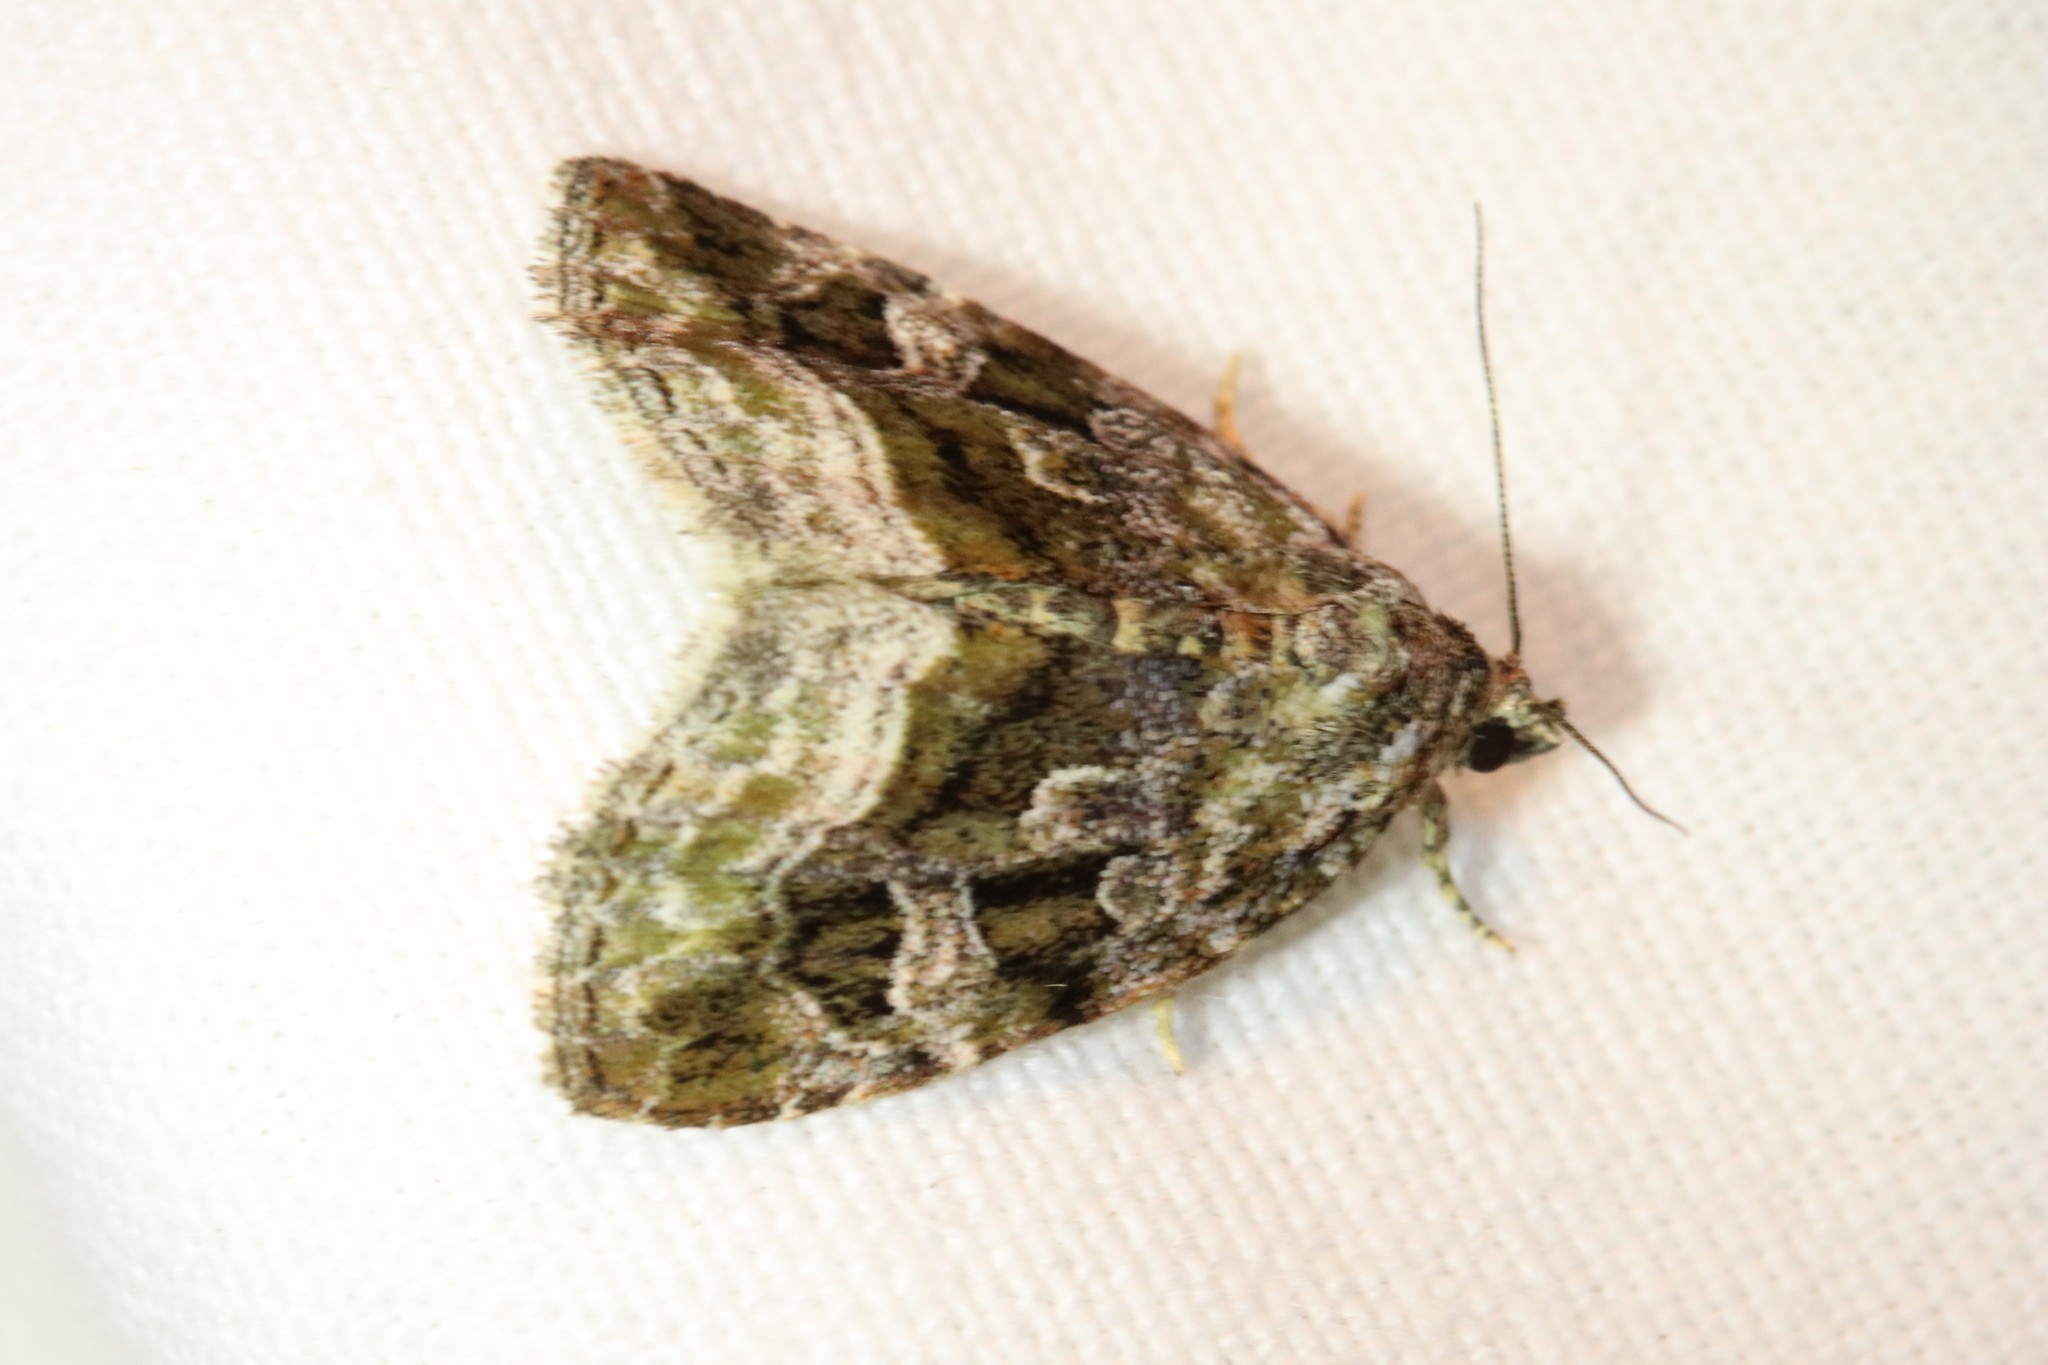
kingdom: Animalia
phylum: Arthropoda
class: Insecta
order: Lepidoptera
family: Noctuidae
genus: Protodeltote
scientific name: Protodeltote muscosula
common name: Large mossy glyph
